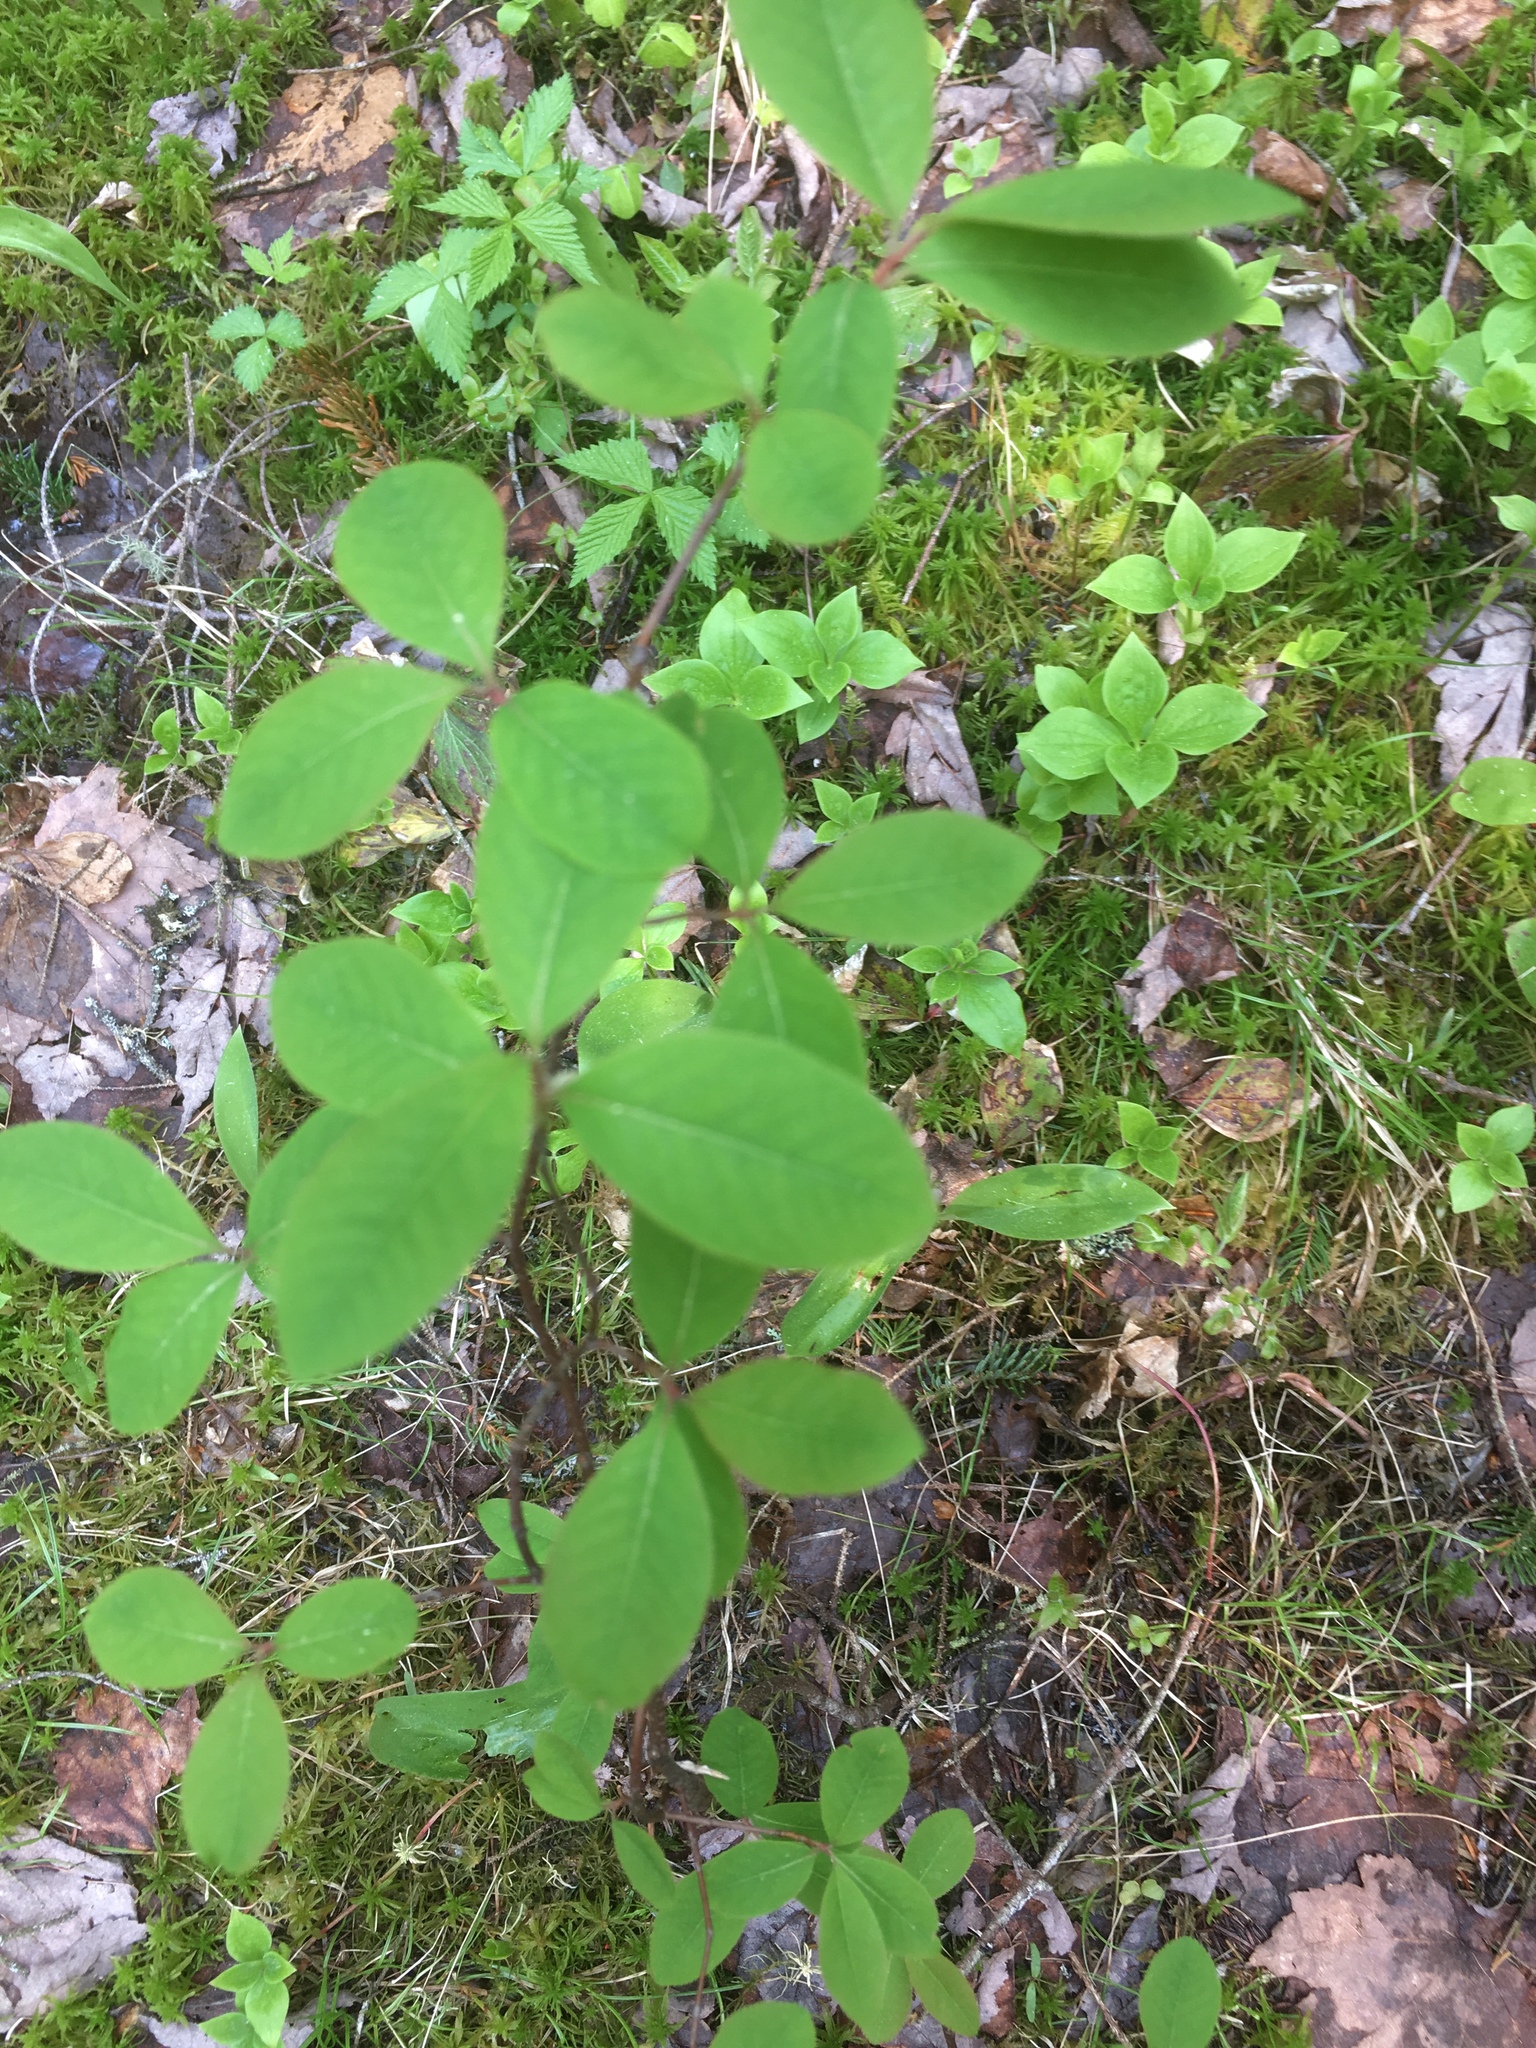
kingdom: Plantae
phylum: Tracheophyta
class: Magnoliopsida
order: Aquifoliales
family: Aquifoliaceae
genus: Ilex
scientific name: Ilex mucronata
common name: Catberry
